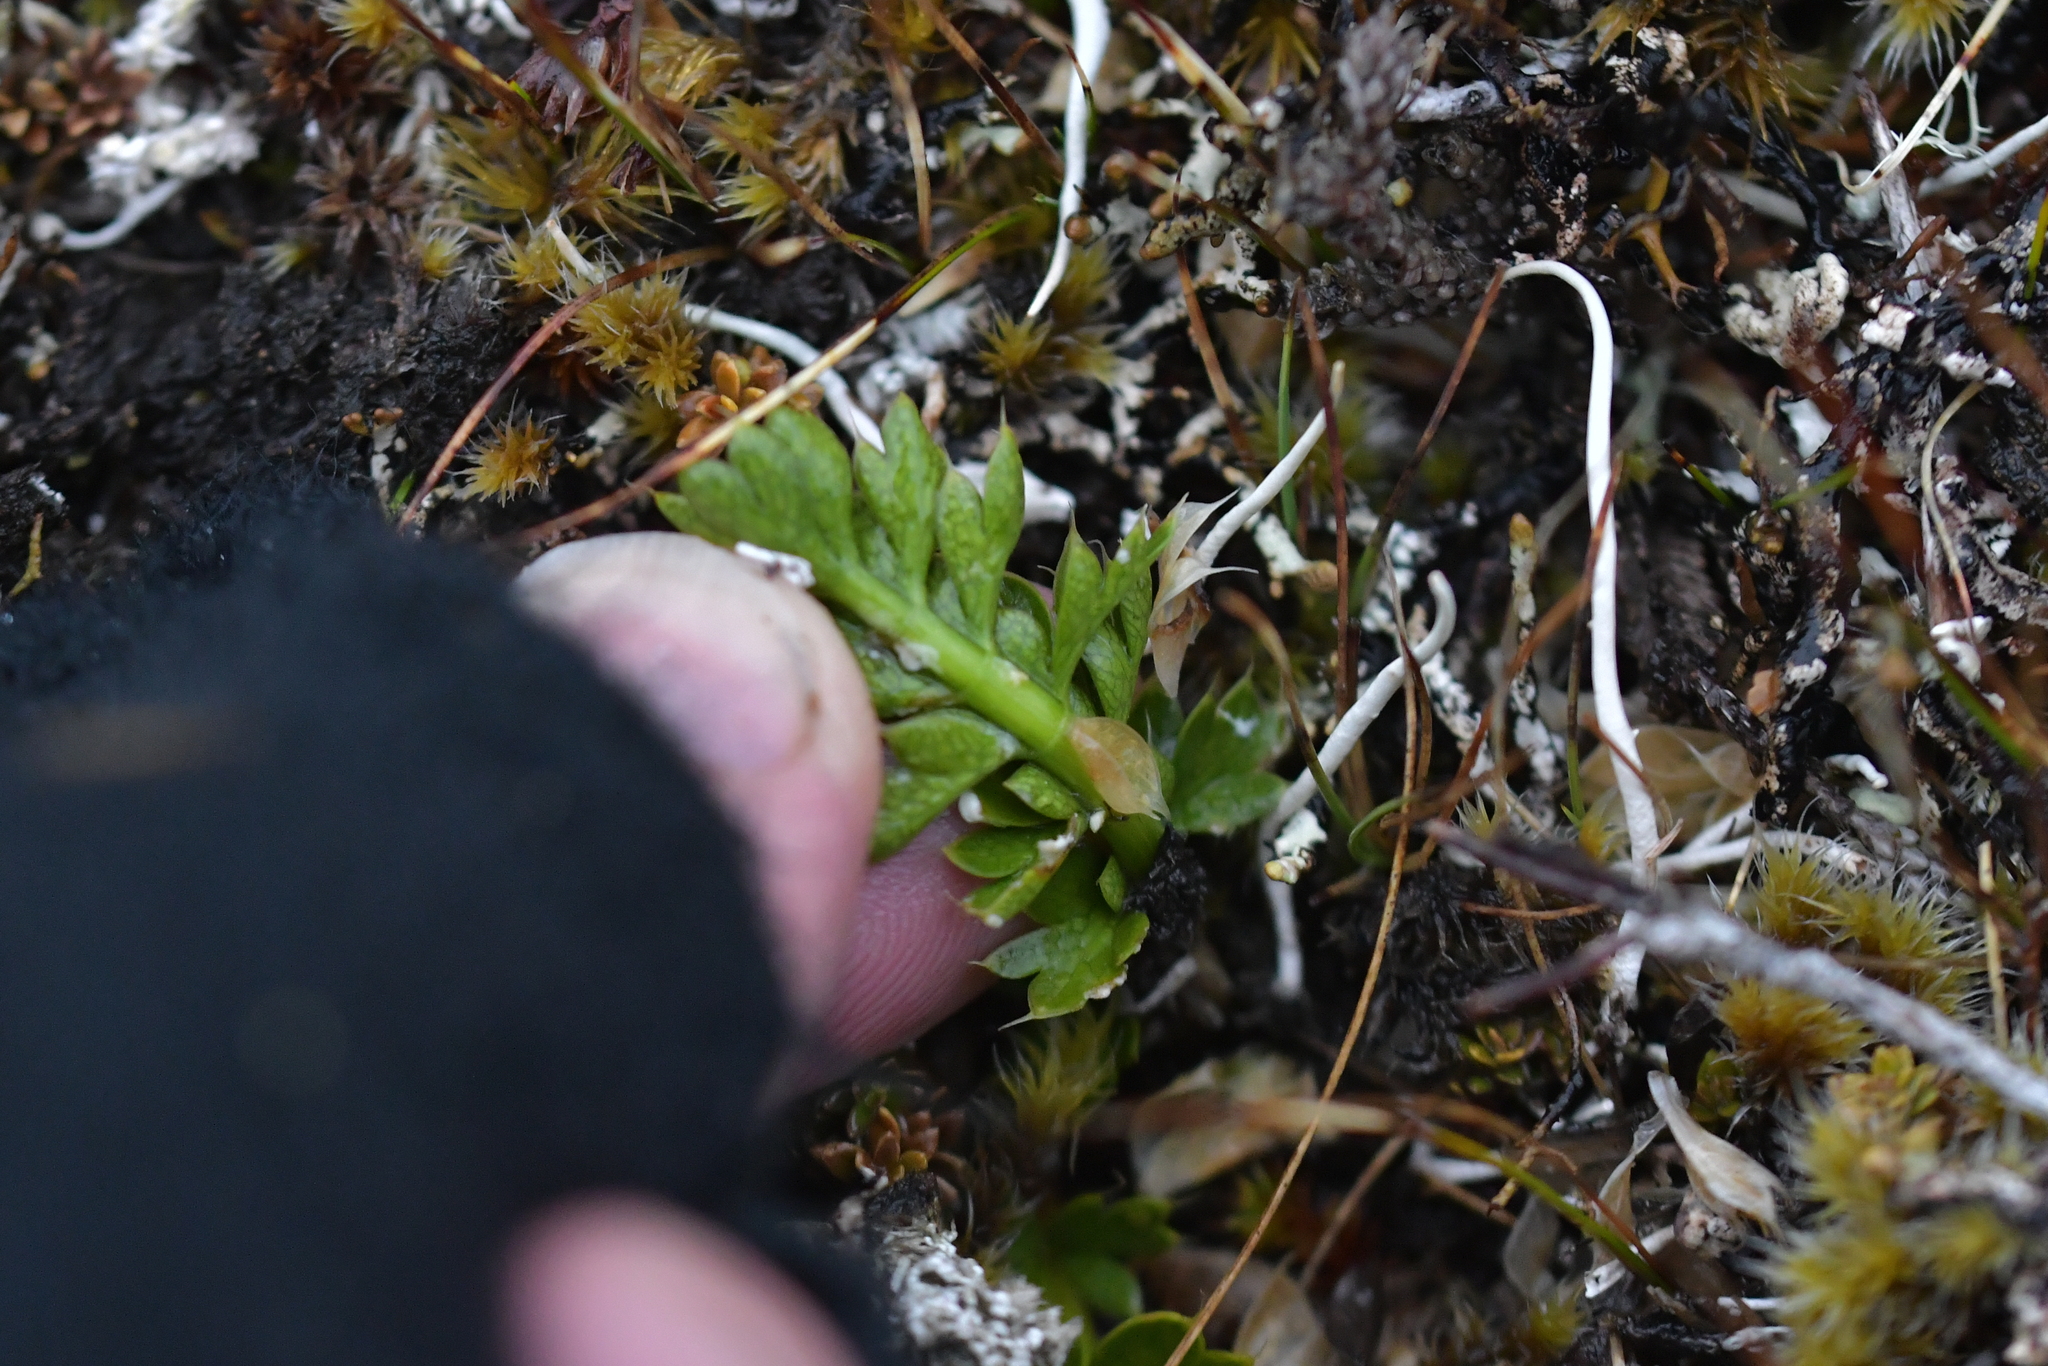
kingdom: Plantae
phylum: Tracheophyta
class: Magnoliopsida
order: Apiales
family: Apiaceae
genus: Gingidia
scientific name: Gingidia montana
